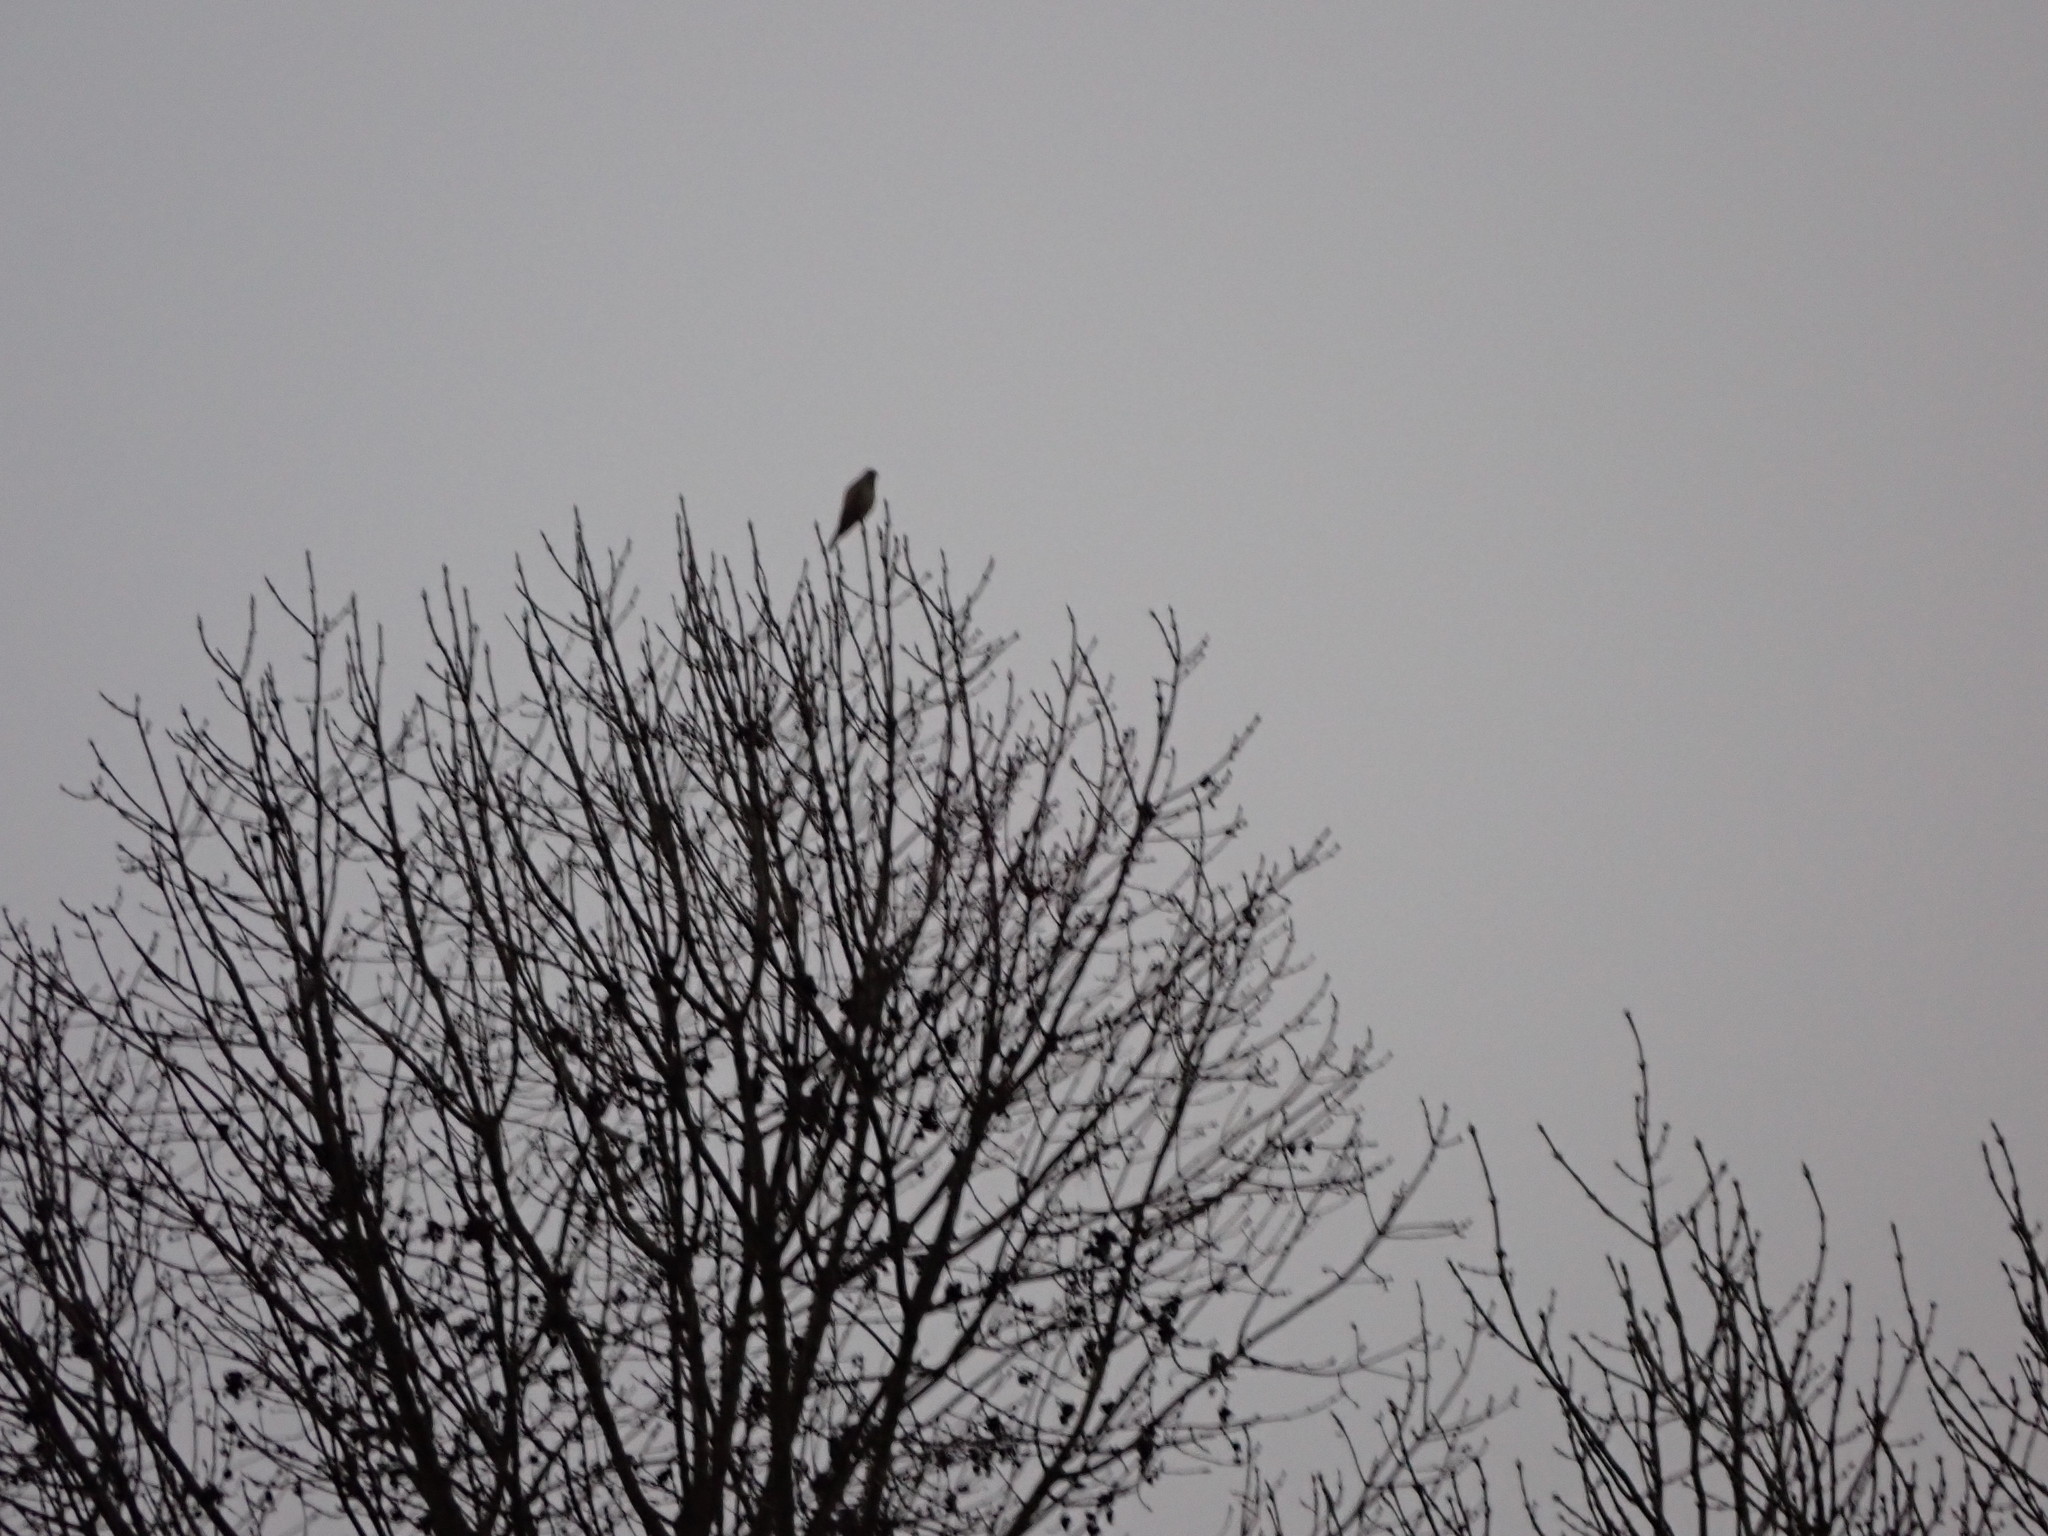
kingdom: Animalia
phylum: Chordata
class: Aves
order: Falconiformes
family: Falconidae
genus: Falco
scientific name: Falco tinnunculus
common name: Common kestrel
